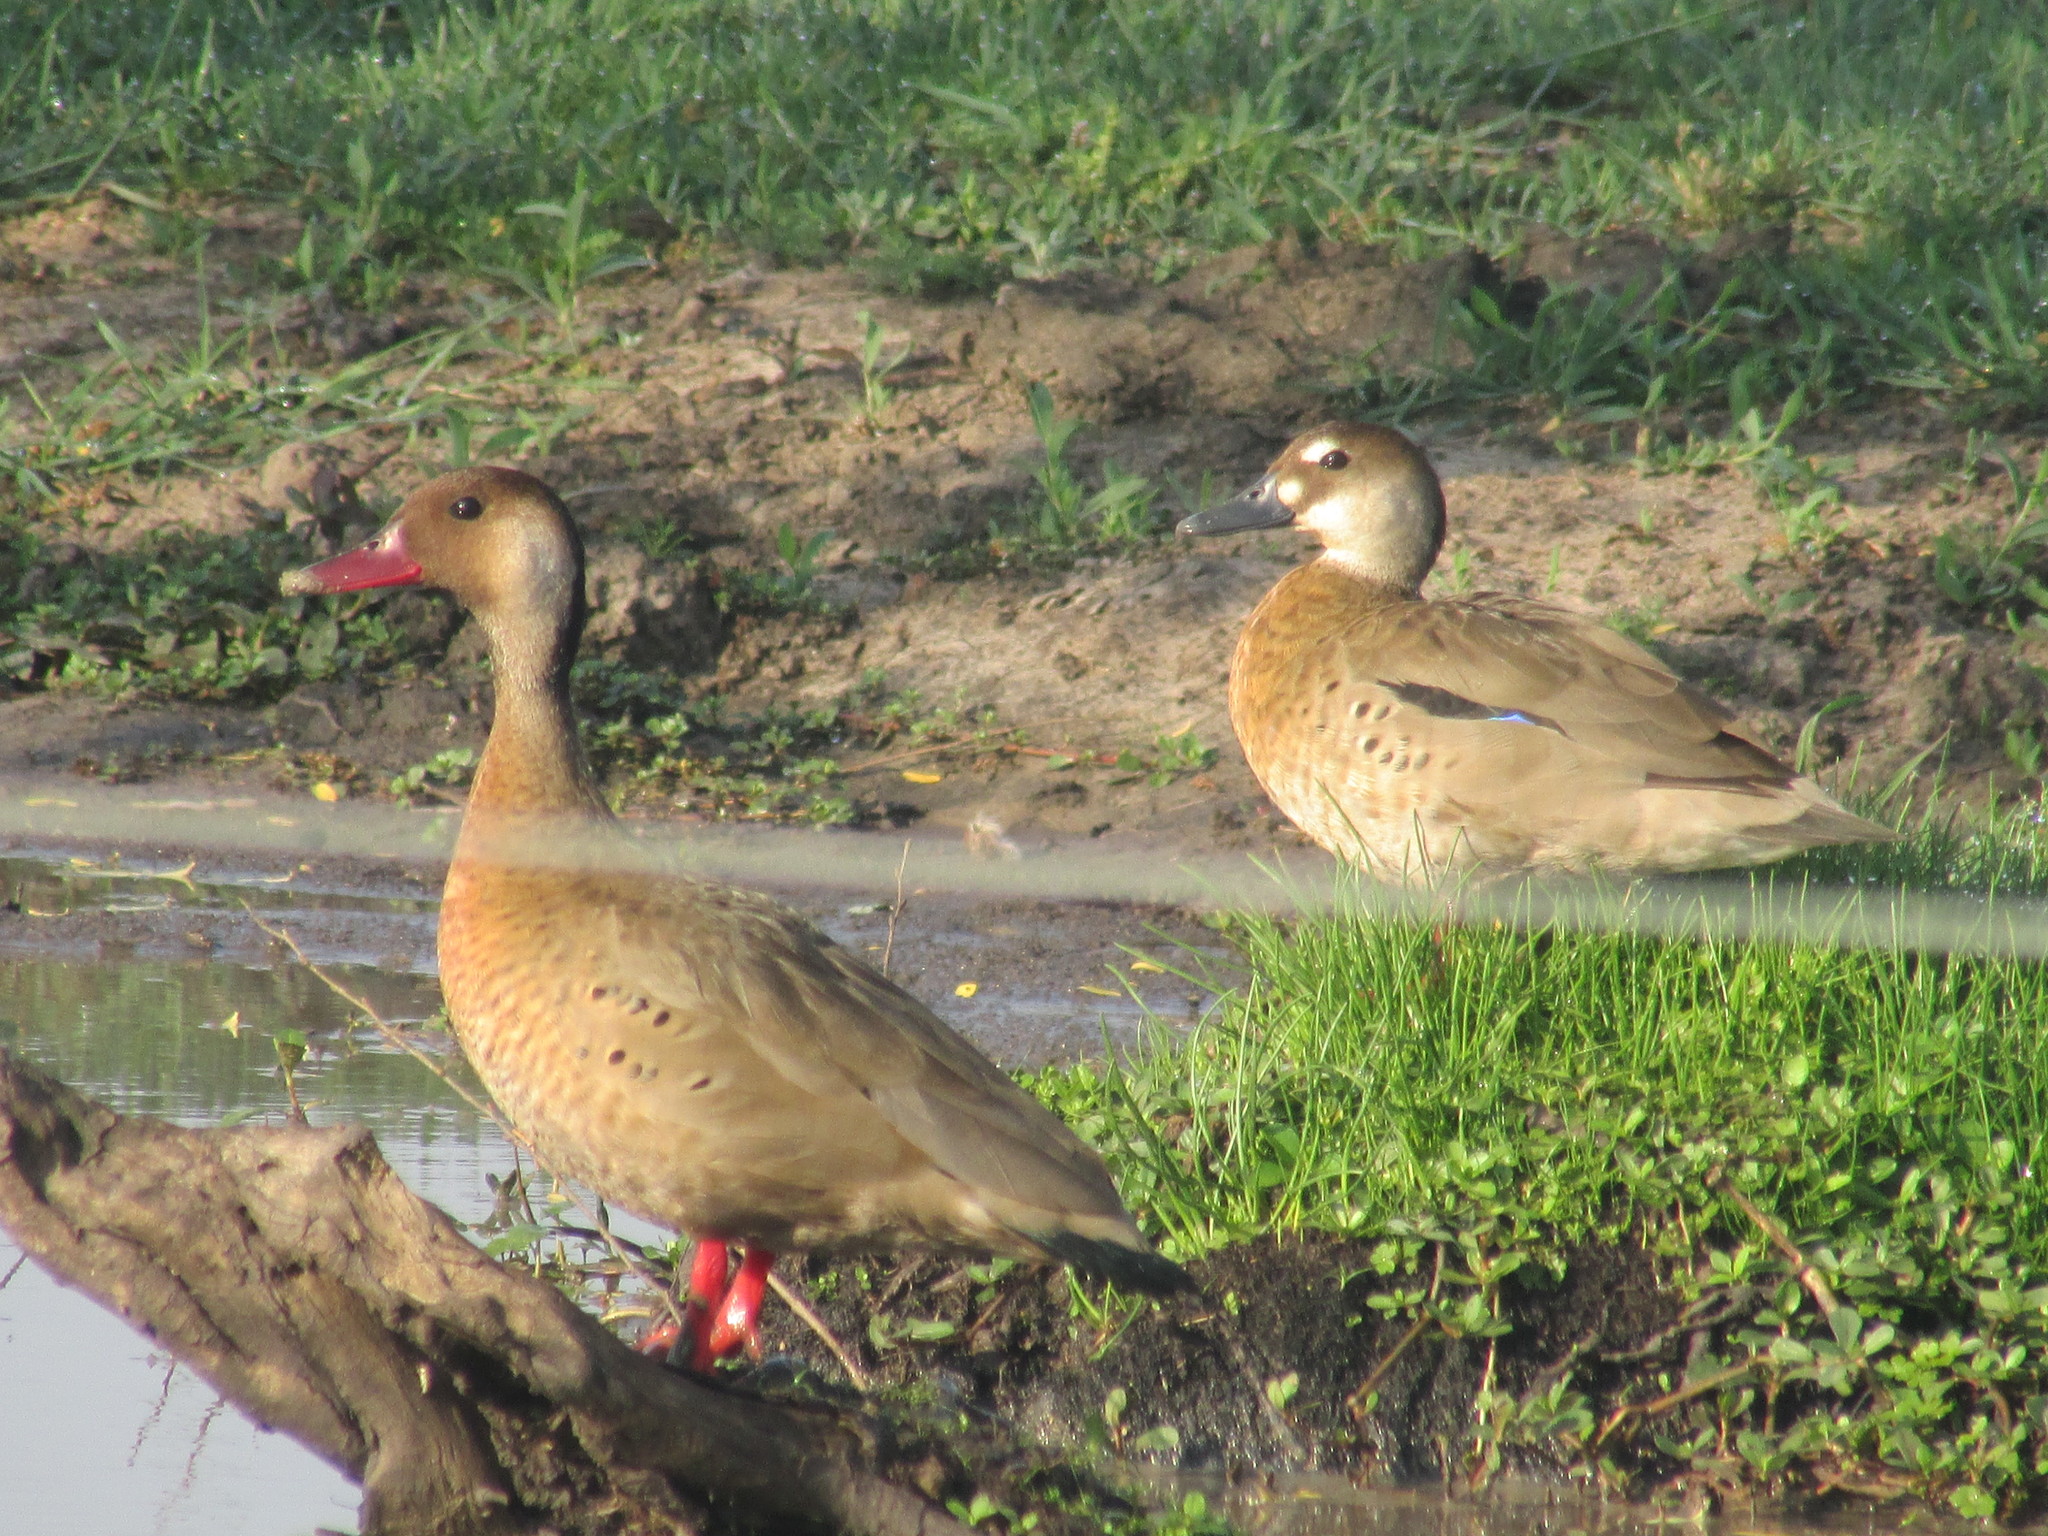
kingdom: Animalia
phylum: Chordata
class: Aves
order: Anseriformes
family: Anatidae
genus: Amazonetta
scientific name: Amazonetta brasiliensis
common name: Brazilian teal
